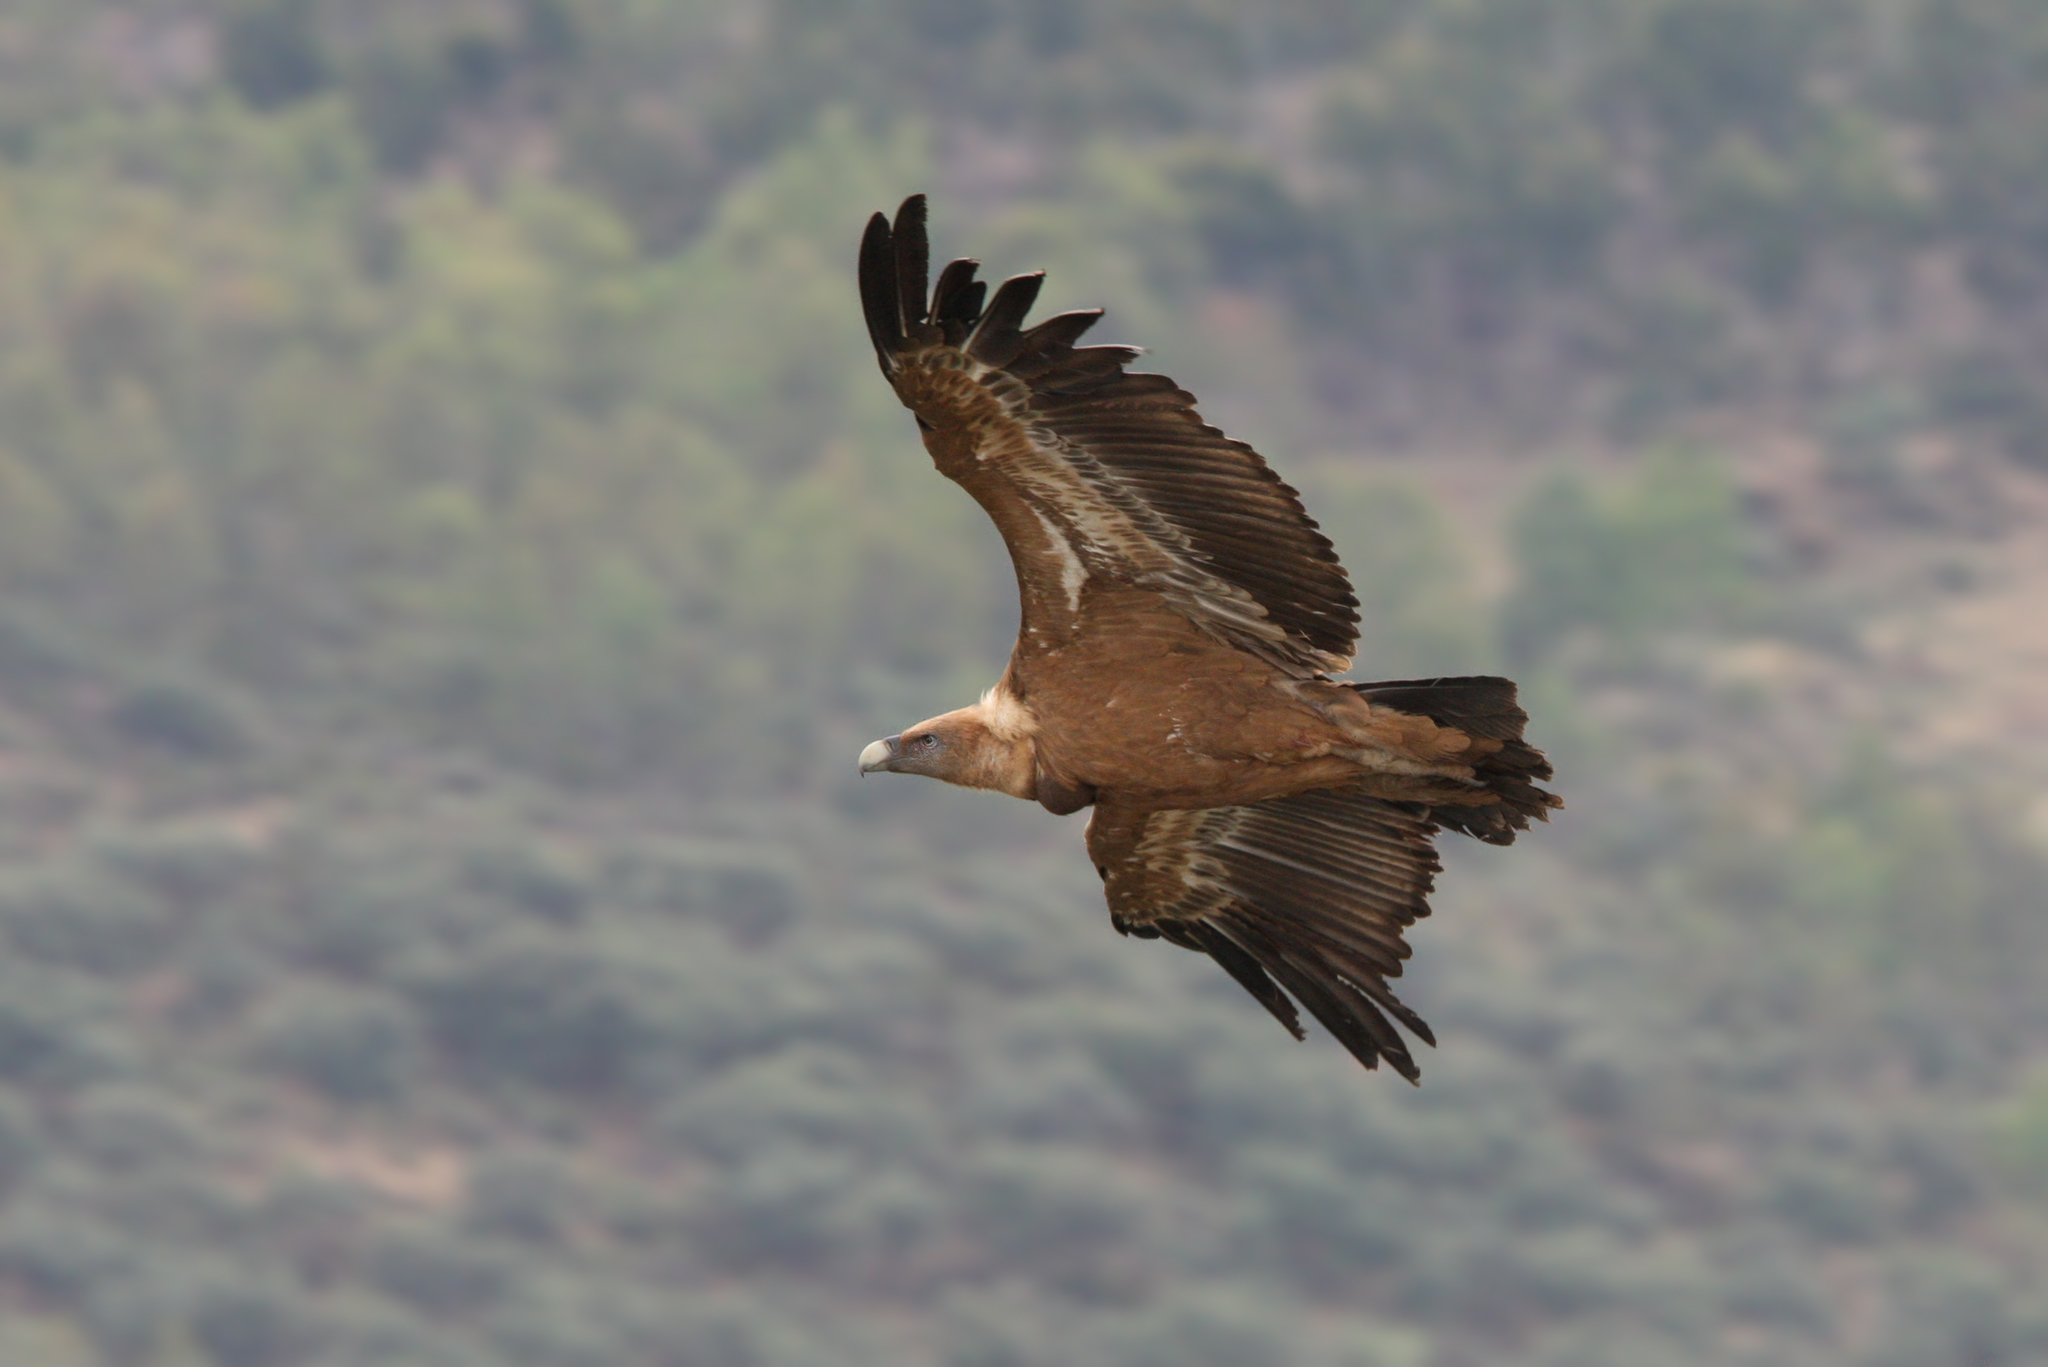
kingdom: Animalia
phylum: Chordata
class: Aves
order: Accipitriformes
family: Accipitridae
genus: Gyps
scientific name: Gyps fulvus
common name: Griffon vulture
